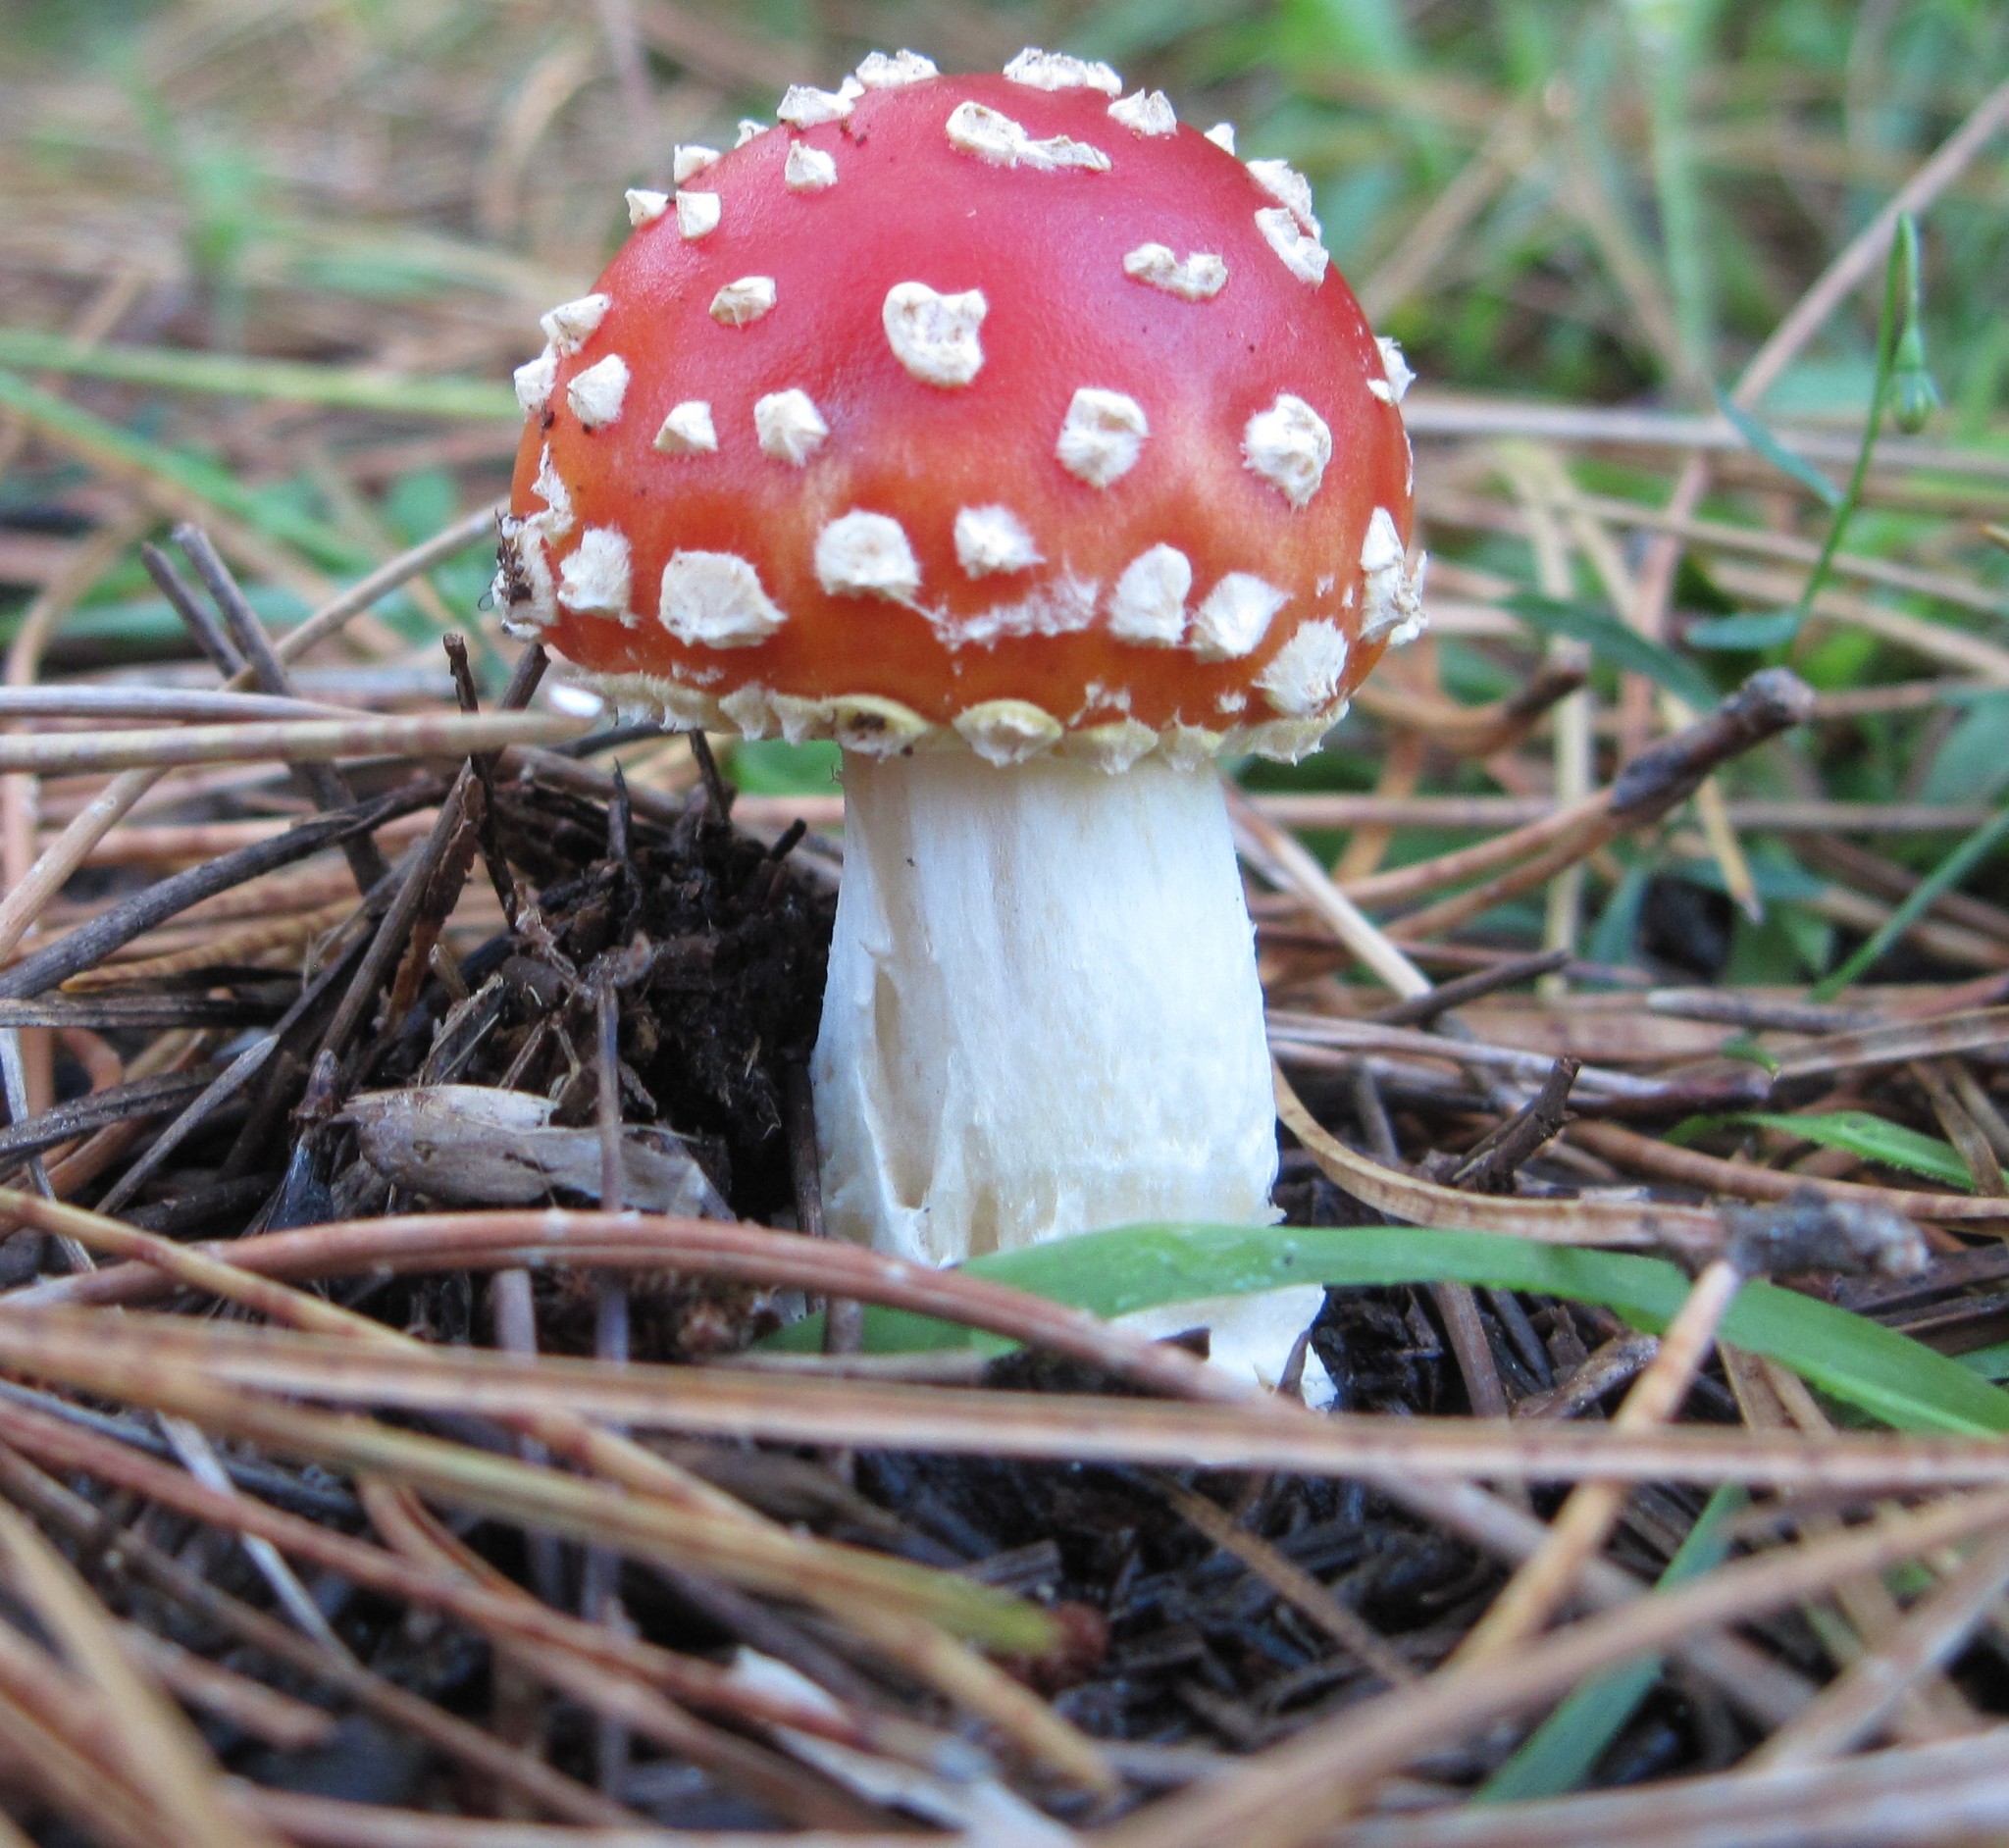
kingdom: Fungi
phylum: Basidiomycota
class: Agaricomycetes
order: Agaricales
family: Amanitaceae
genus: Amanita
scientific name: Amanita muscaria
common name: Fly agaric
